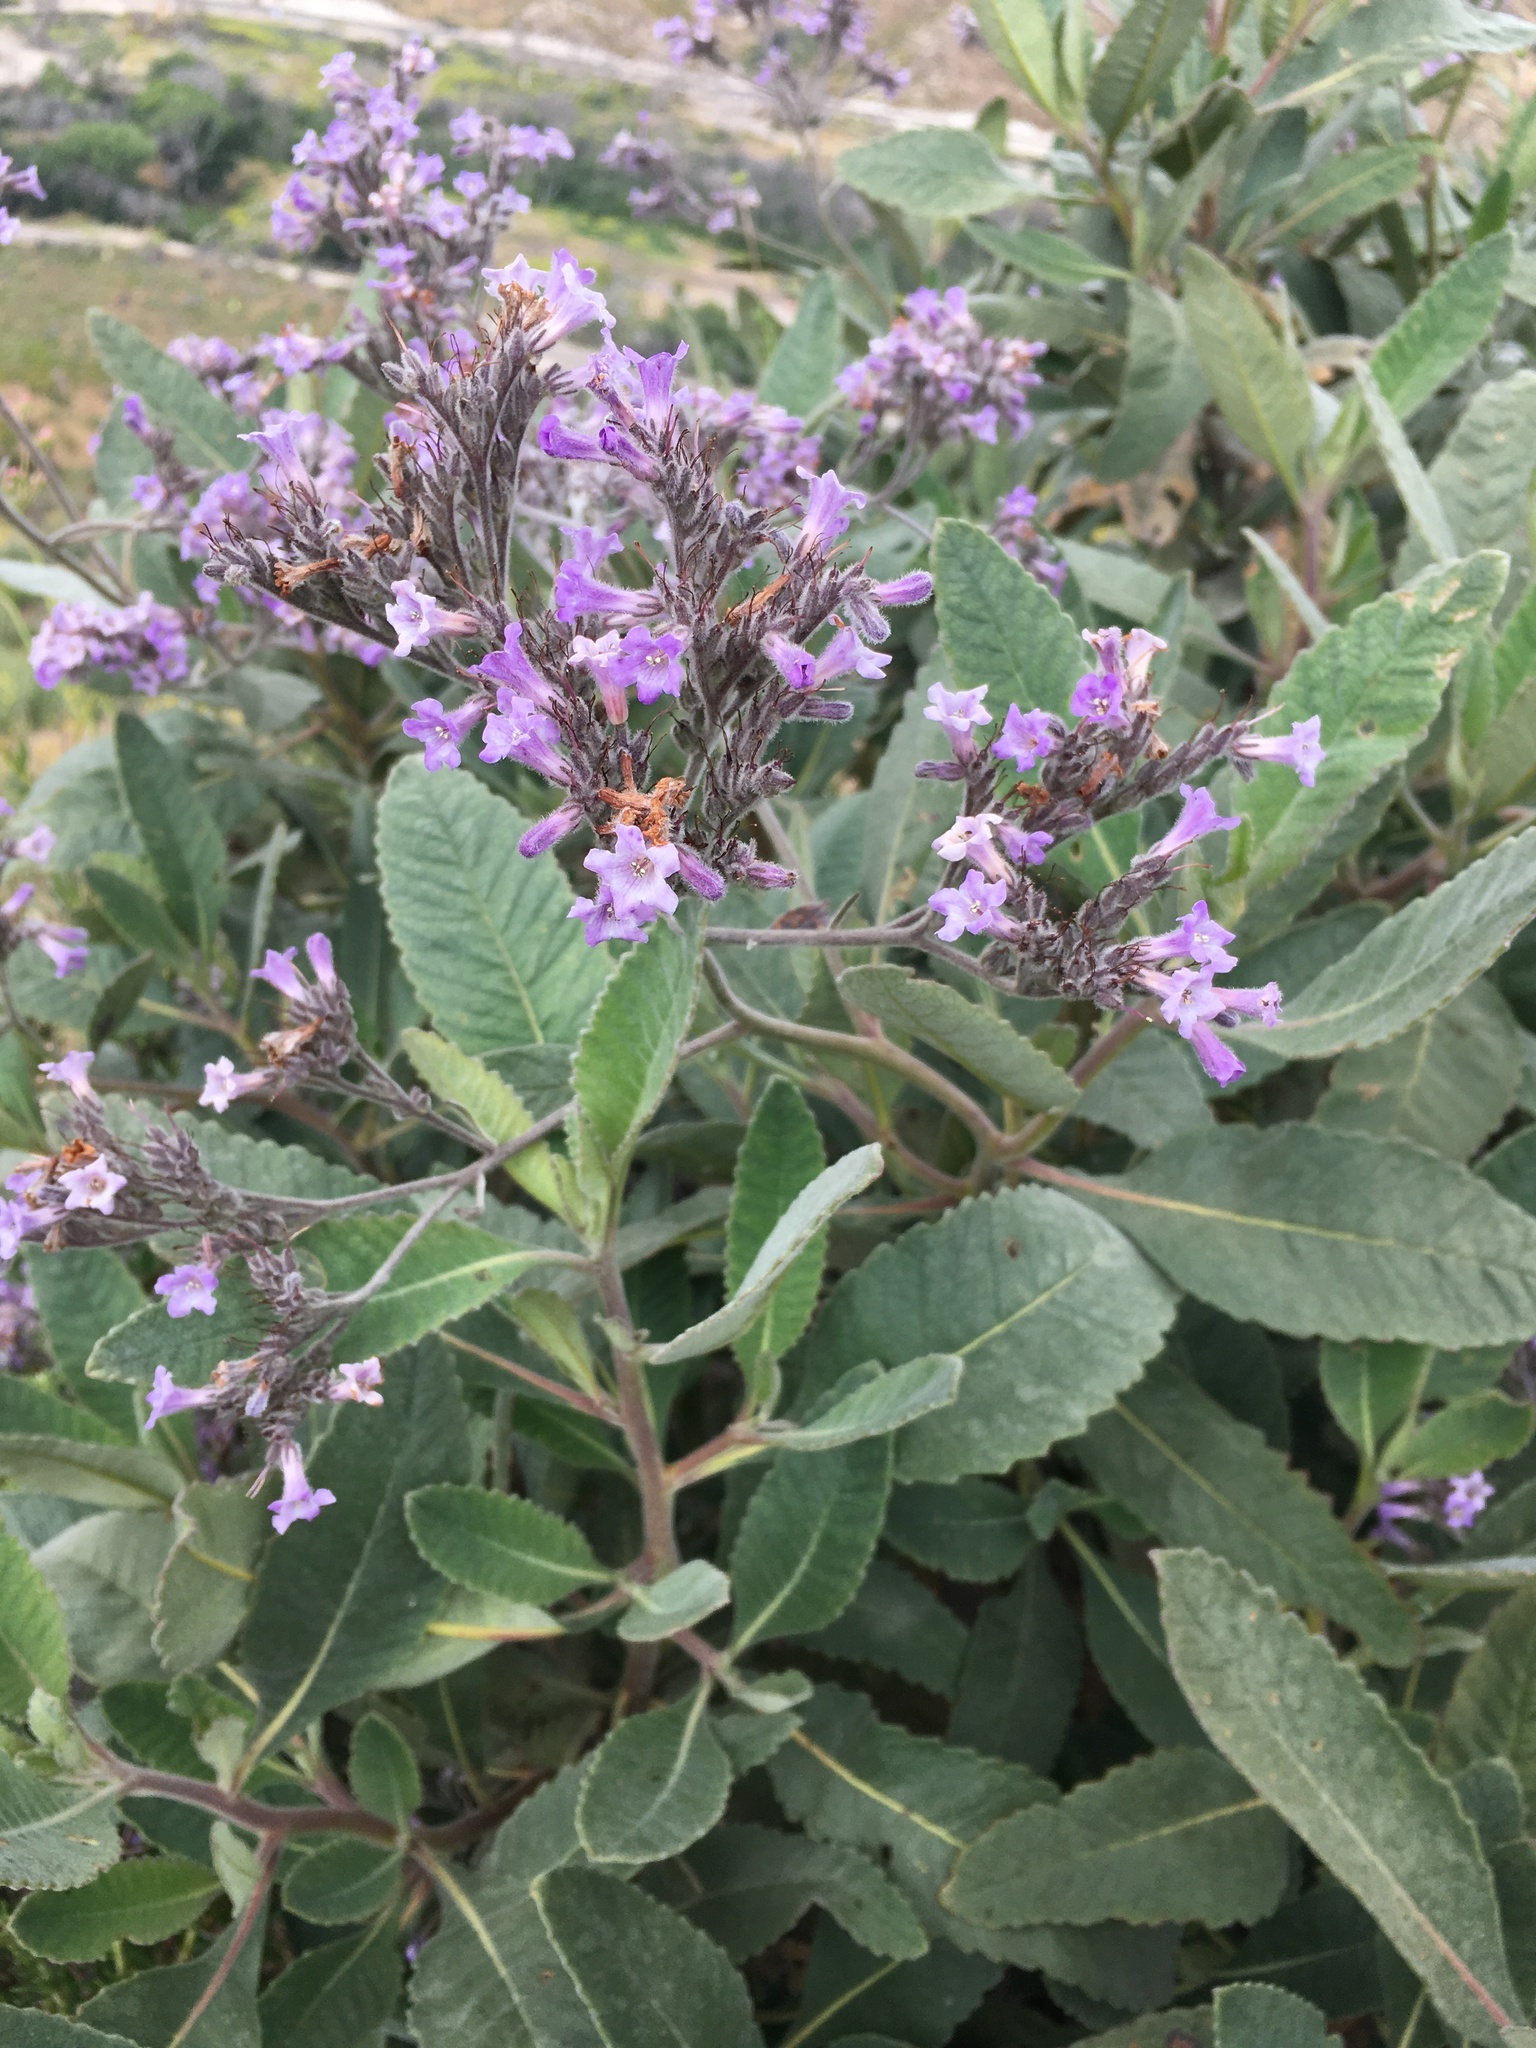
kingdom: Plantae
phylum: Tracheophyta
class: Magnoliopsida
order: Boraginales
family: Namaceae
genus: Eriodictyon
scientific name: Eriodictyon crassifolium
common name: Thick-leaf yerba-santa
